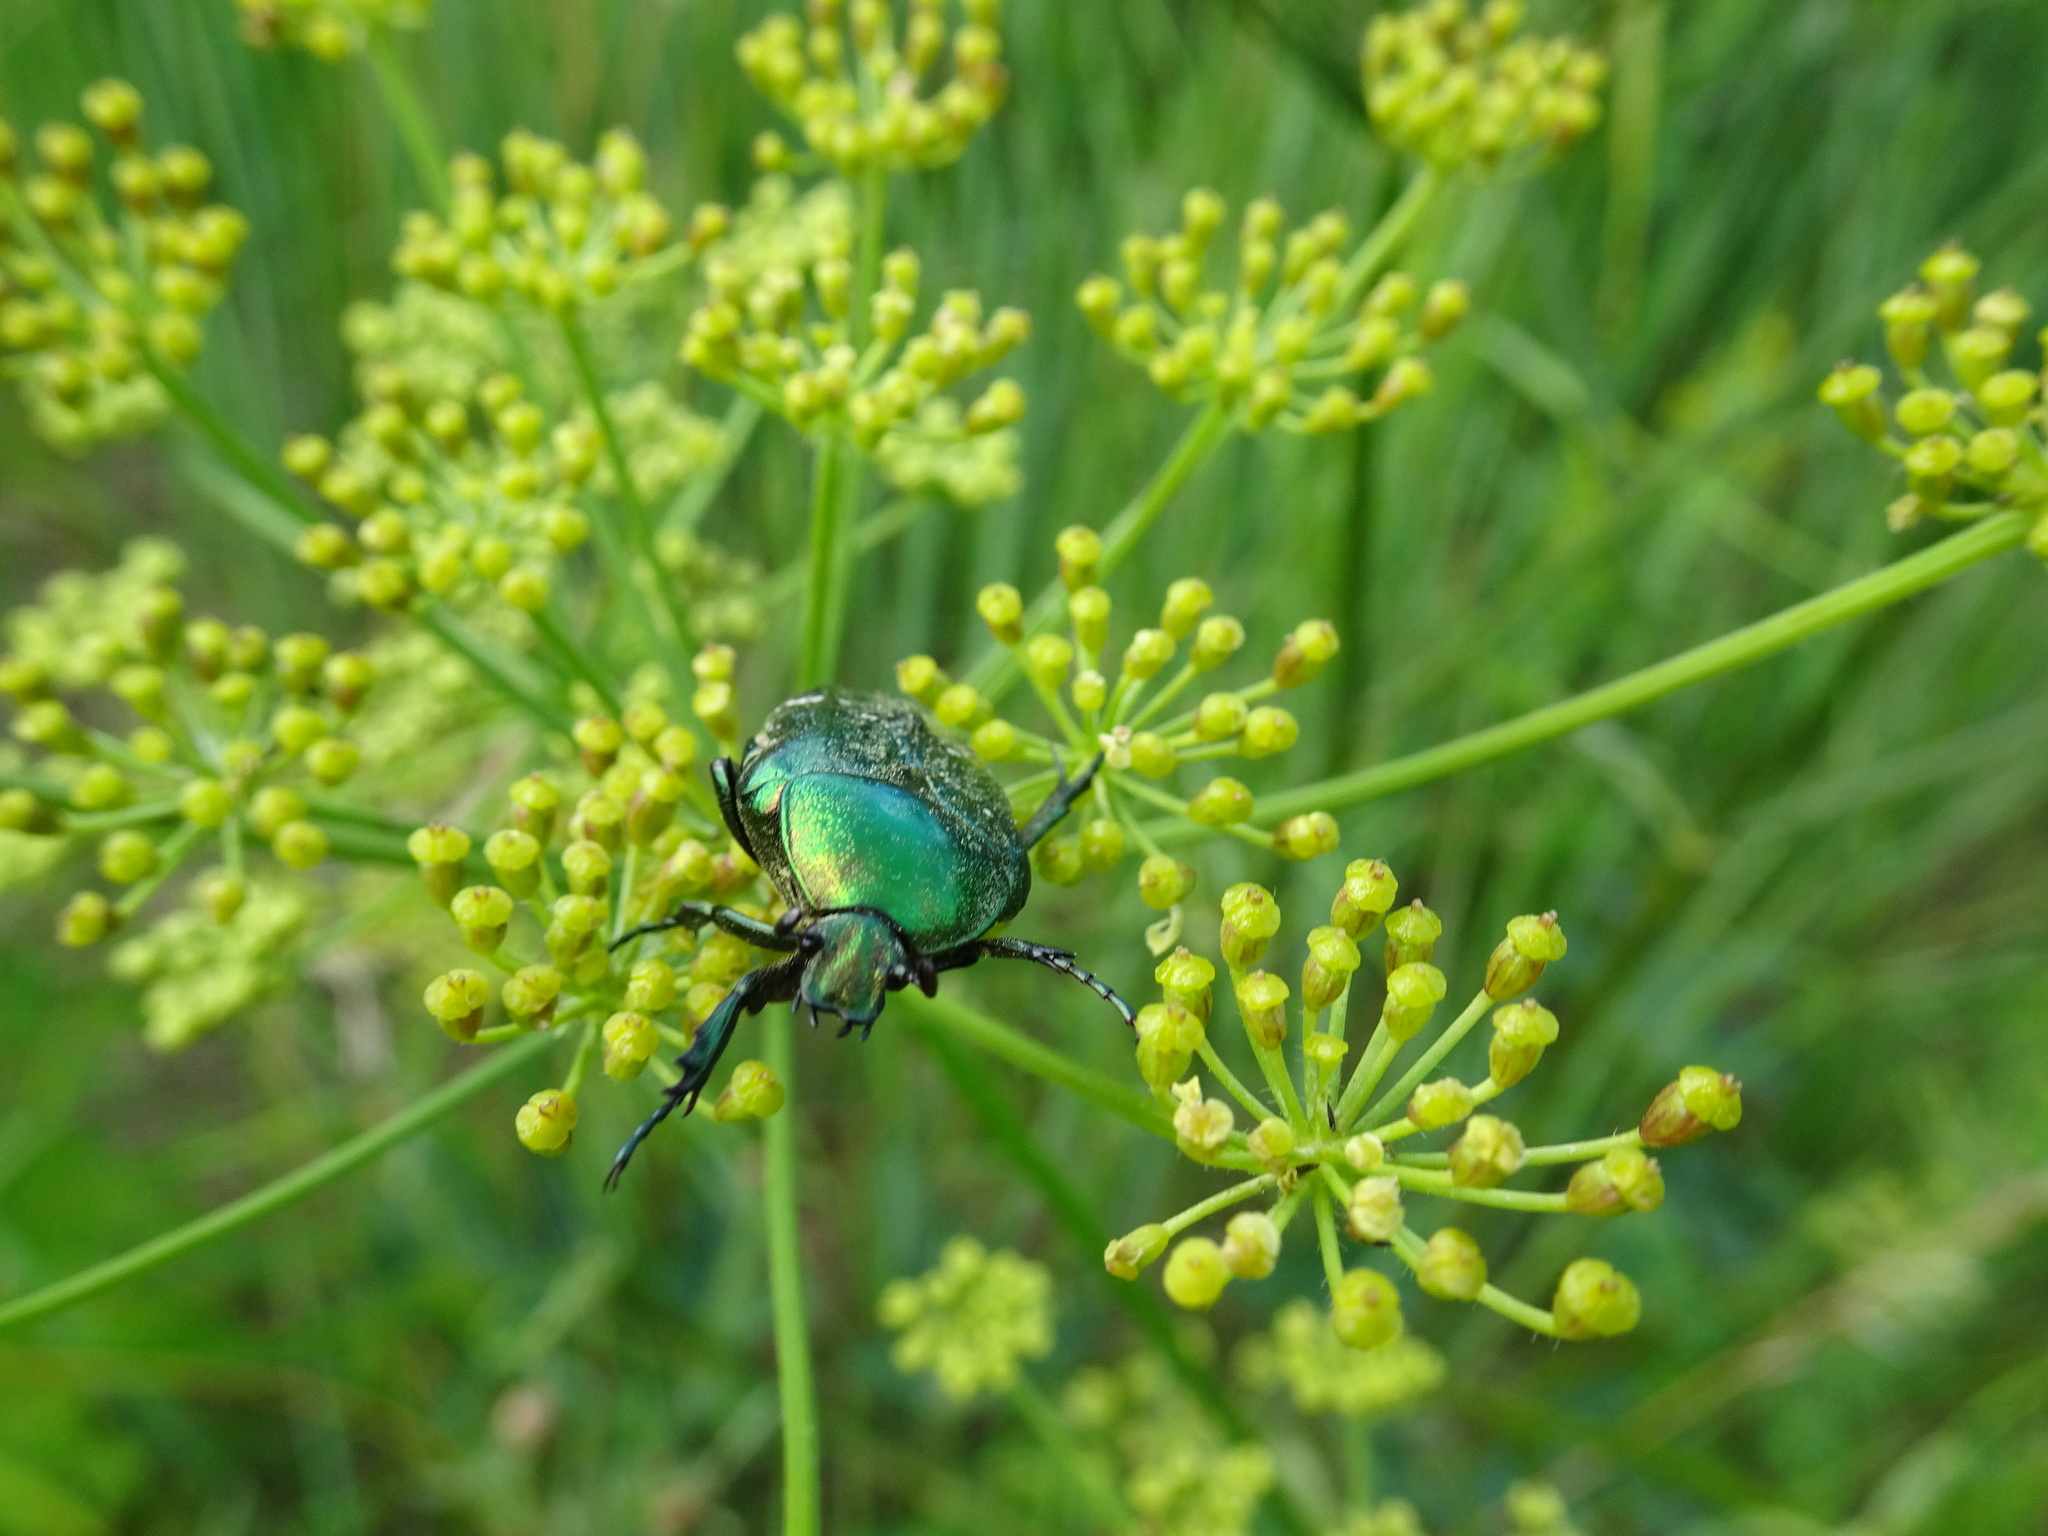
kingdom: Animalia
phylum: Arthropoda
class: Insecta
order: Coleoptera
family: Scarabaeidae
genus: Cetonia
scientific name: Cetonia aurata
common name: Rose chafer
